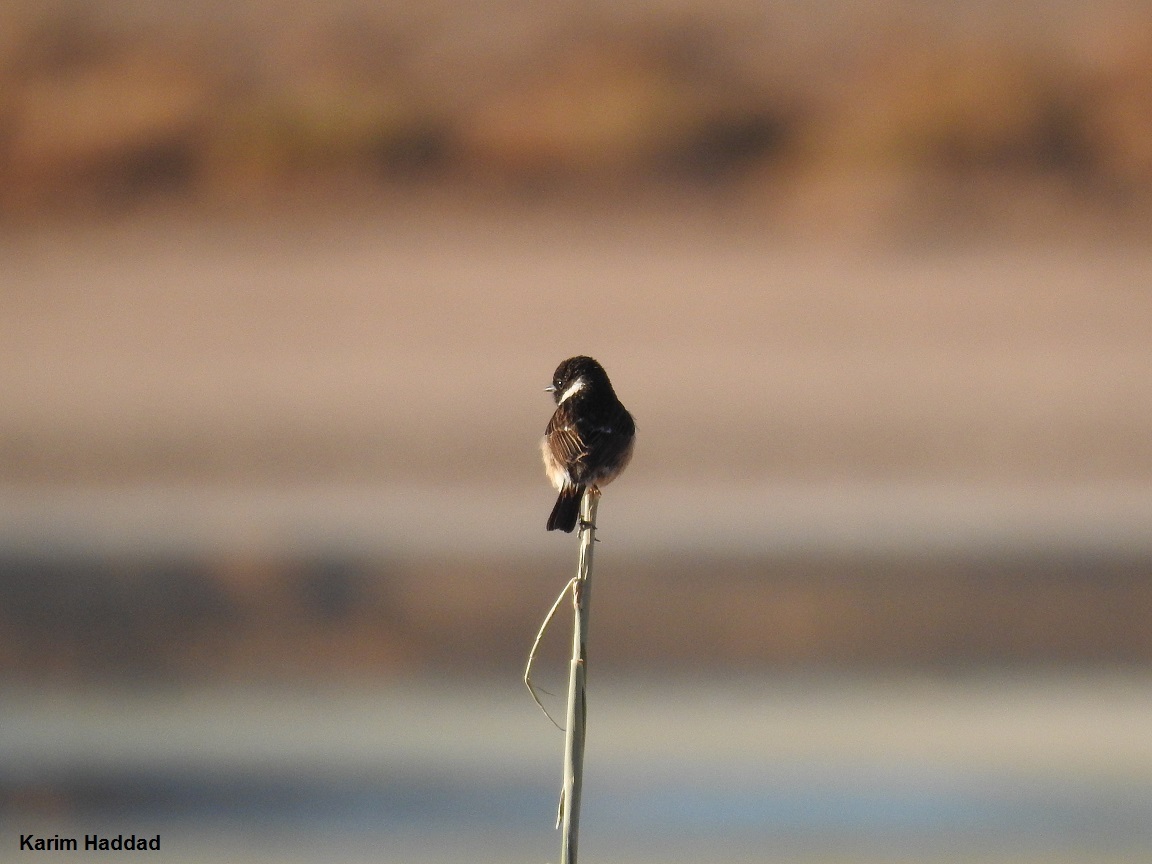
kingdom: Animalia
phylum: Chordata
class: Aves
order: Passeriformes
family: Muscicapidae
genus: Saxicola
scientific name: Saxicola rubicola
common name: European stonechat
